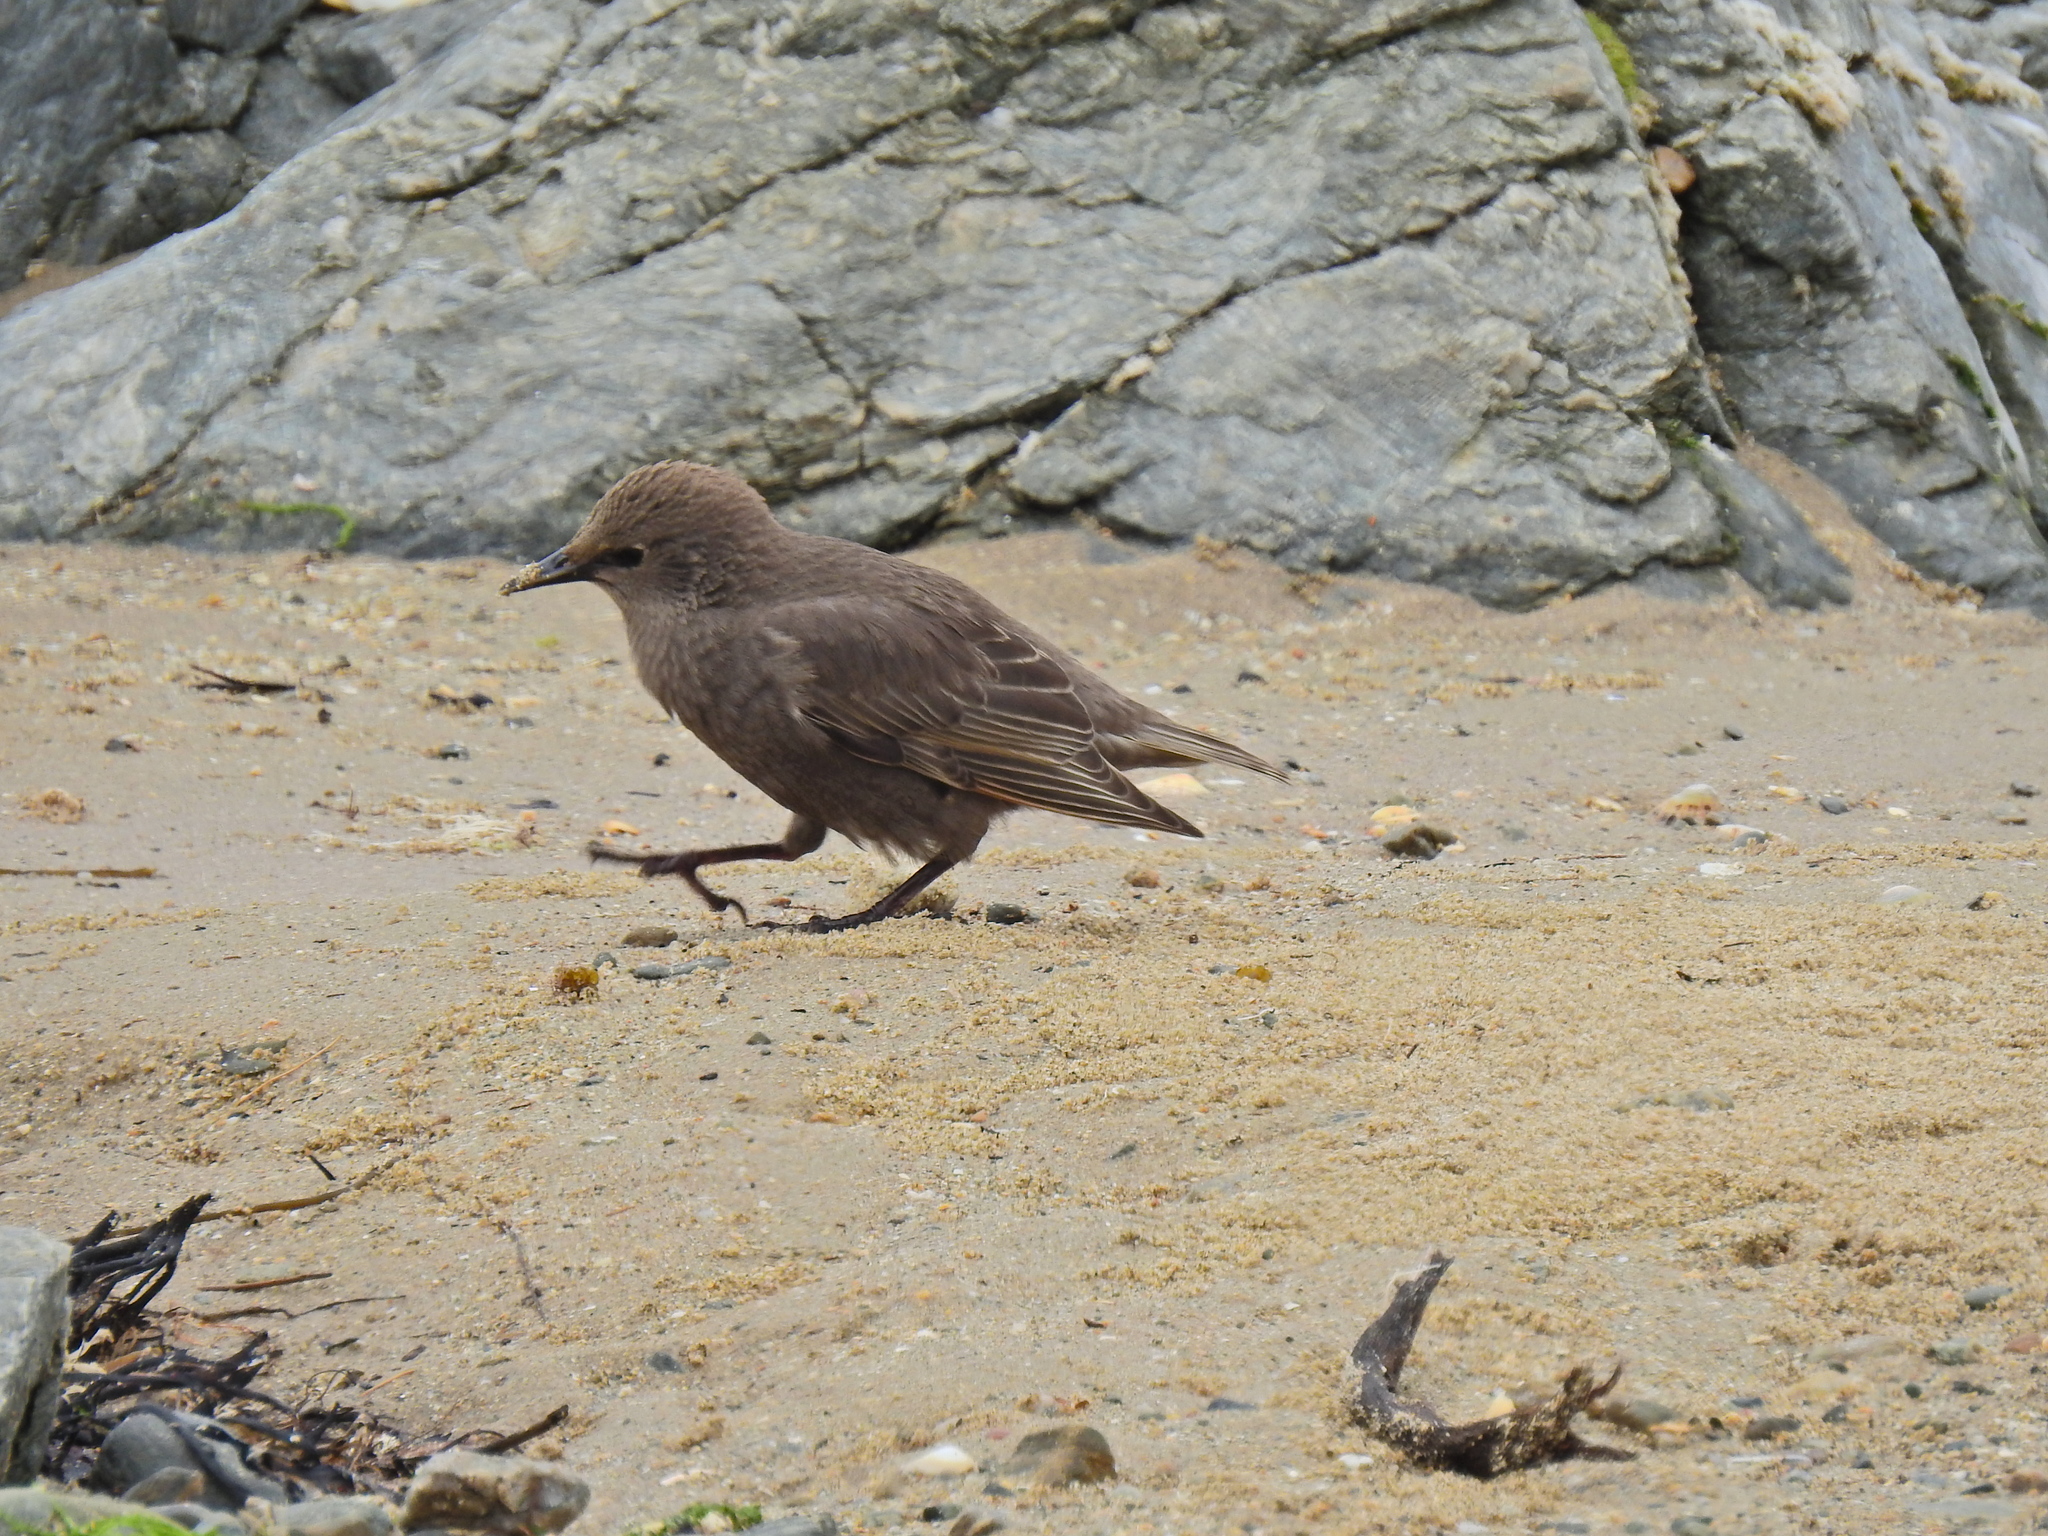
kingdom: Animalia
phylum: Chordata
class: Aves
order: Passeriformes
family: Sturnidae
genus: Sturnus
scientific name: Sturnus vulgaris
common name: Common starling
